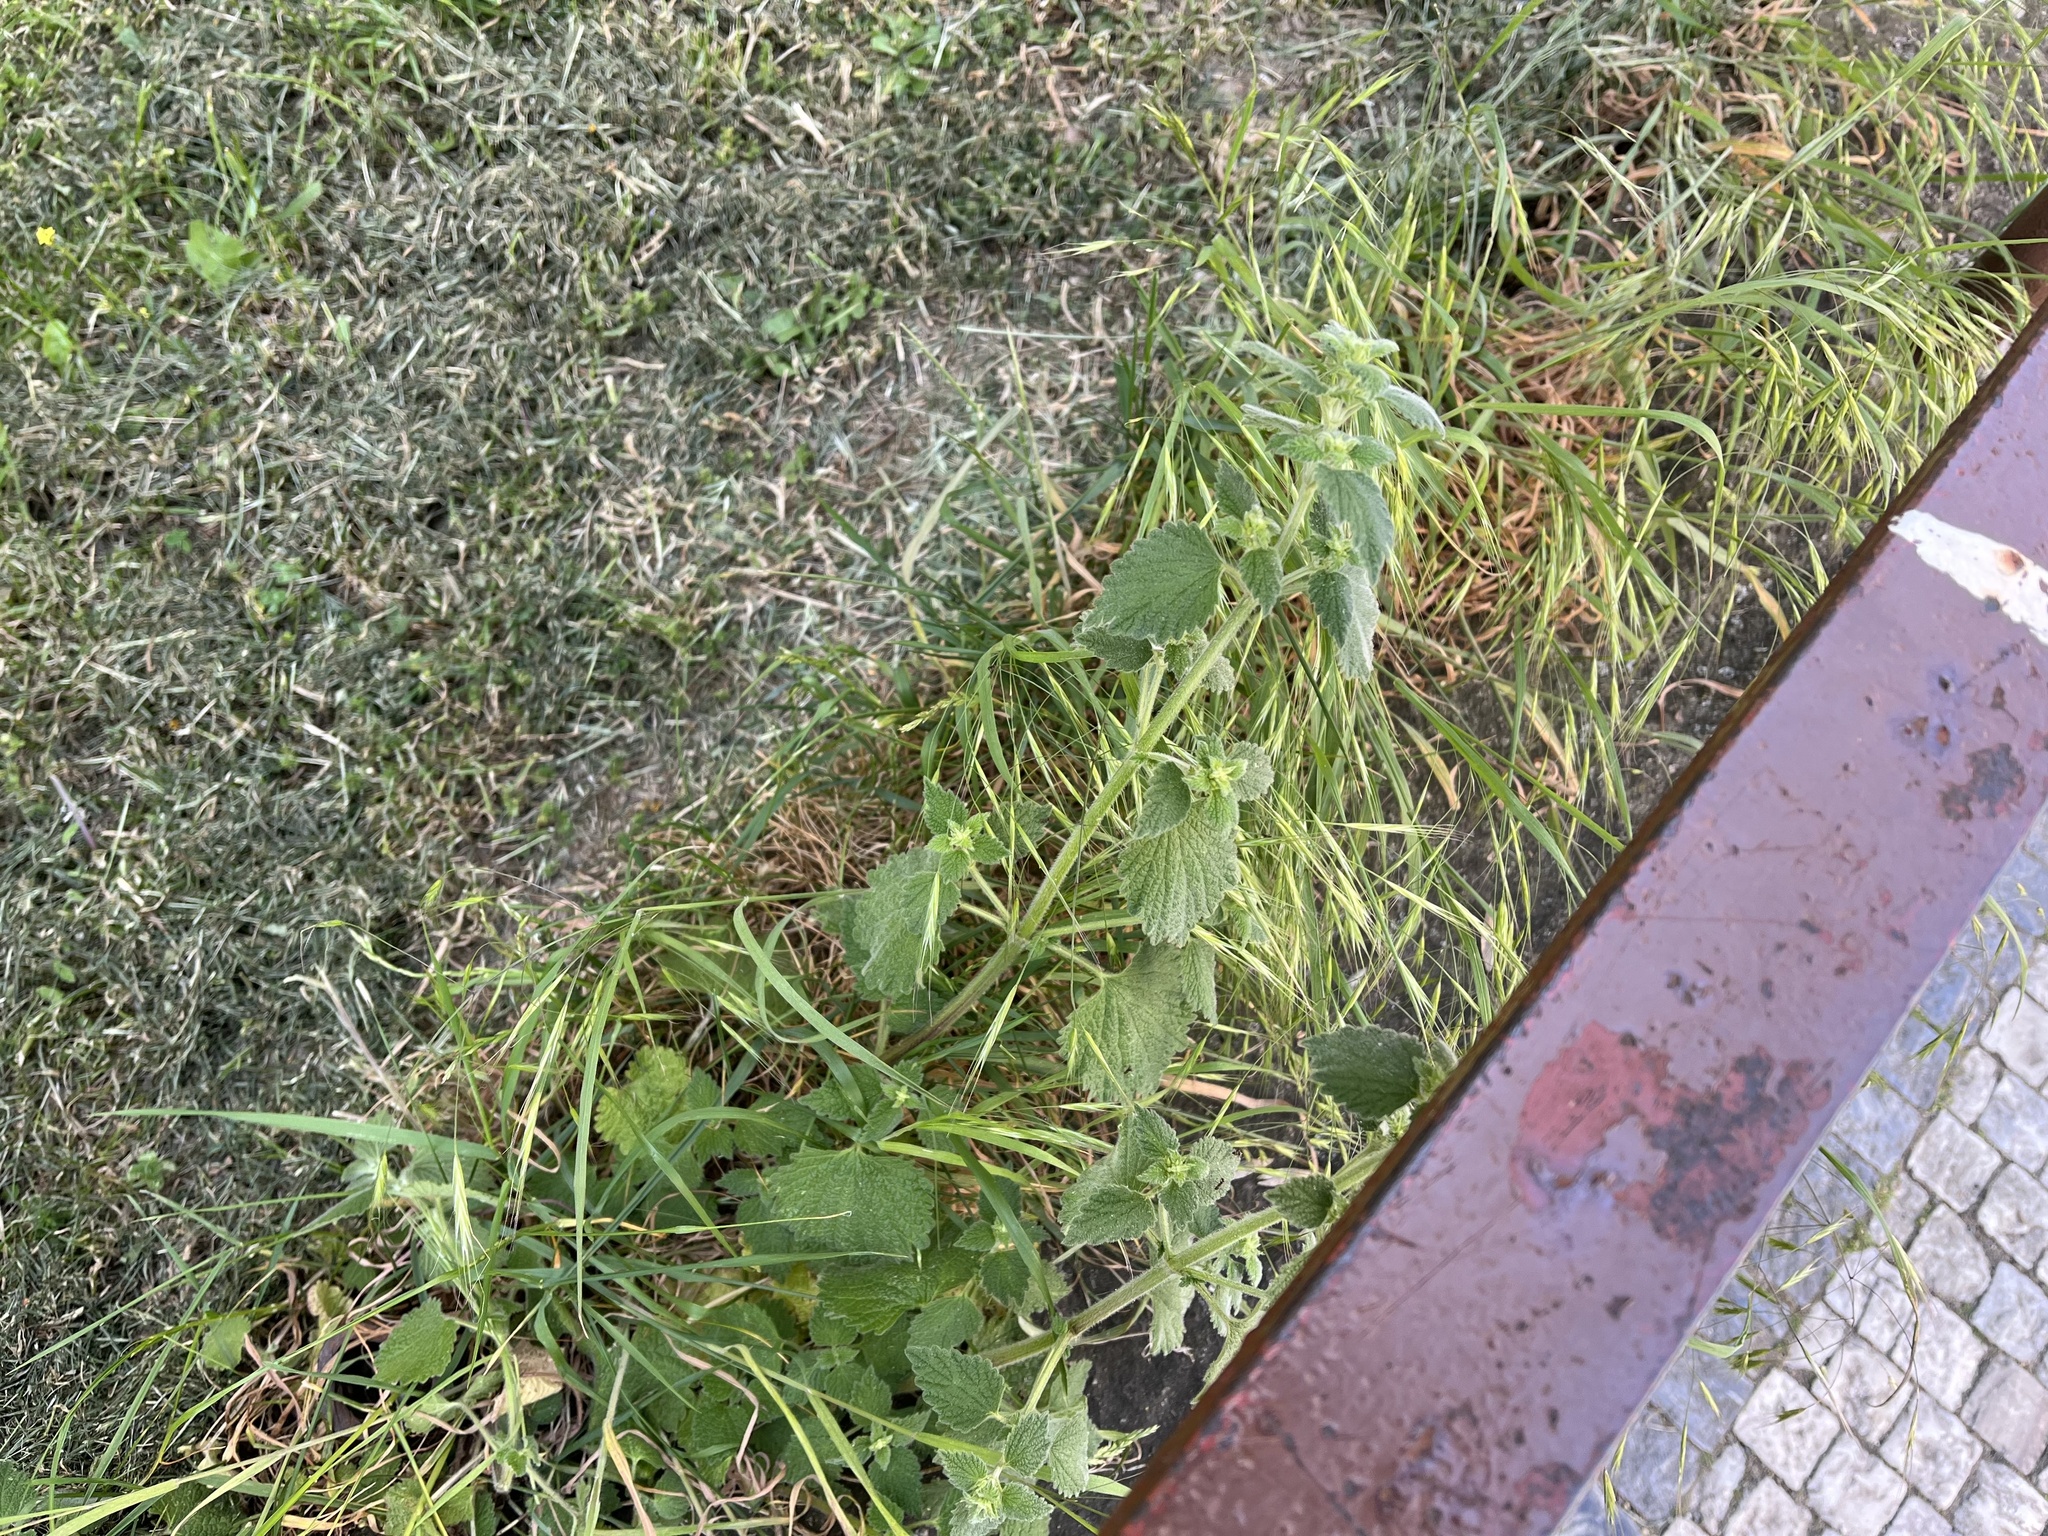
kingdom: Plantae
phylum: Tracheophyta
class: Magnoliopsida
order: Lamiales
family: Lamiaceae
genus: Ballota
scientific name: Ballota nigra
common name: Black horehound
